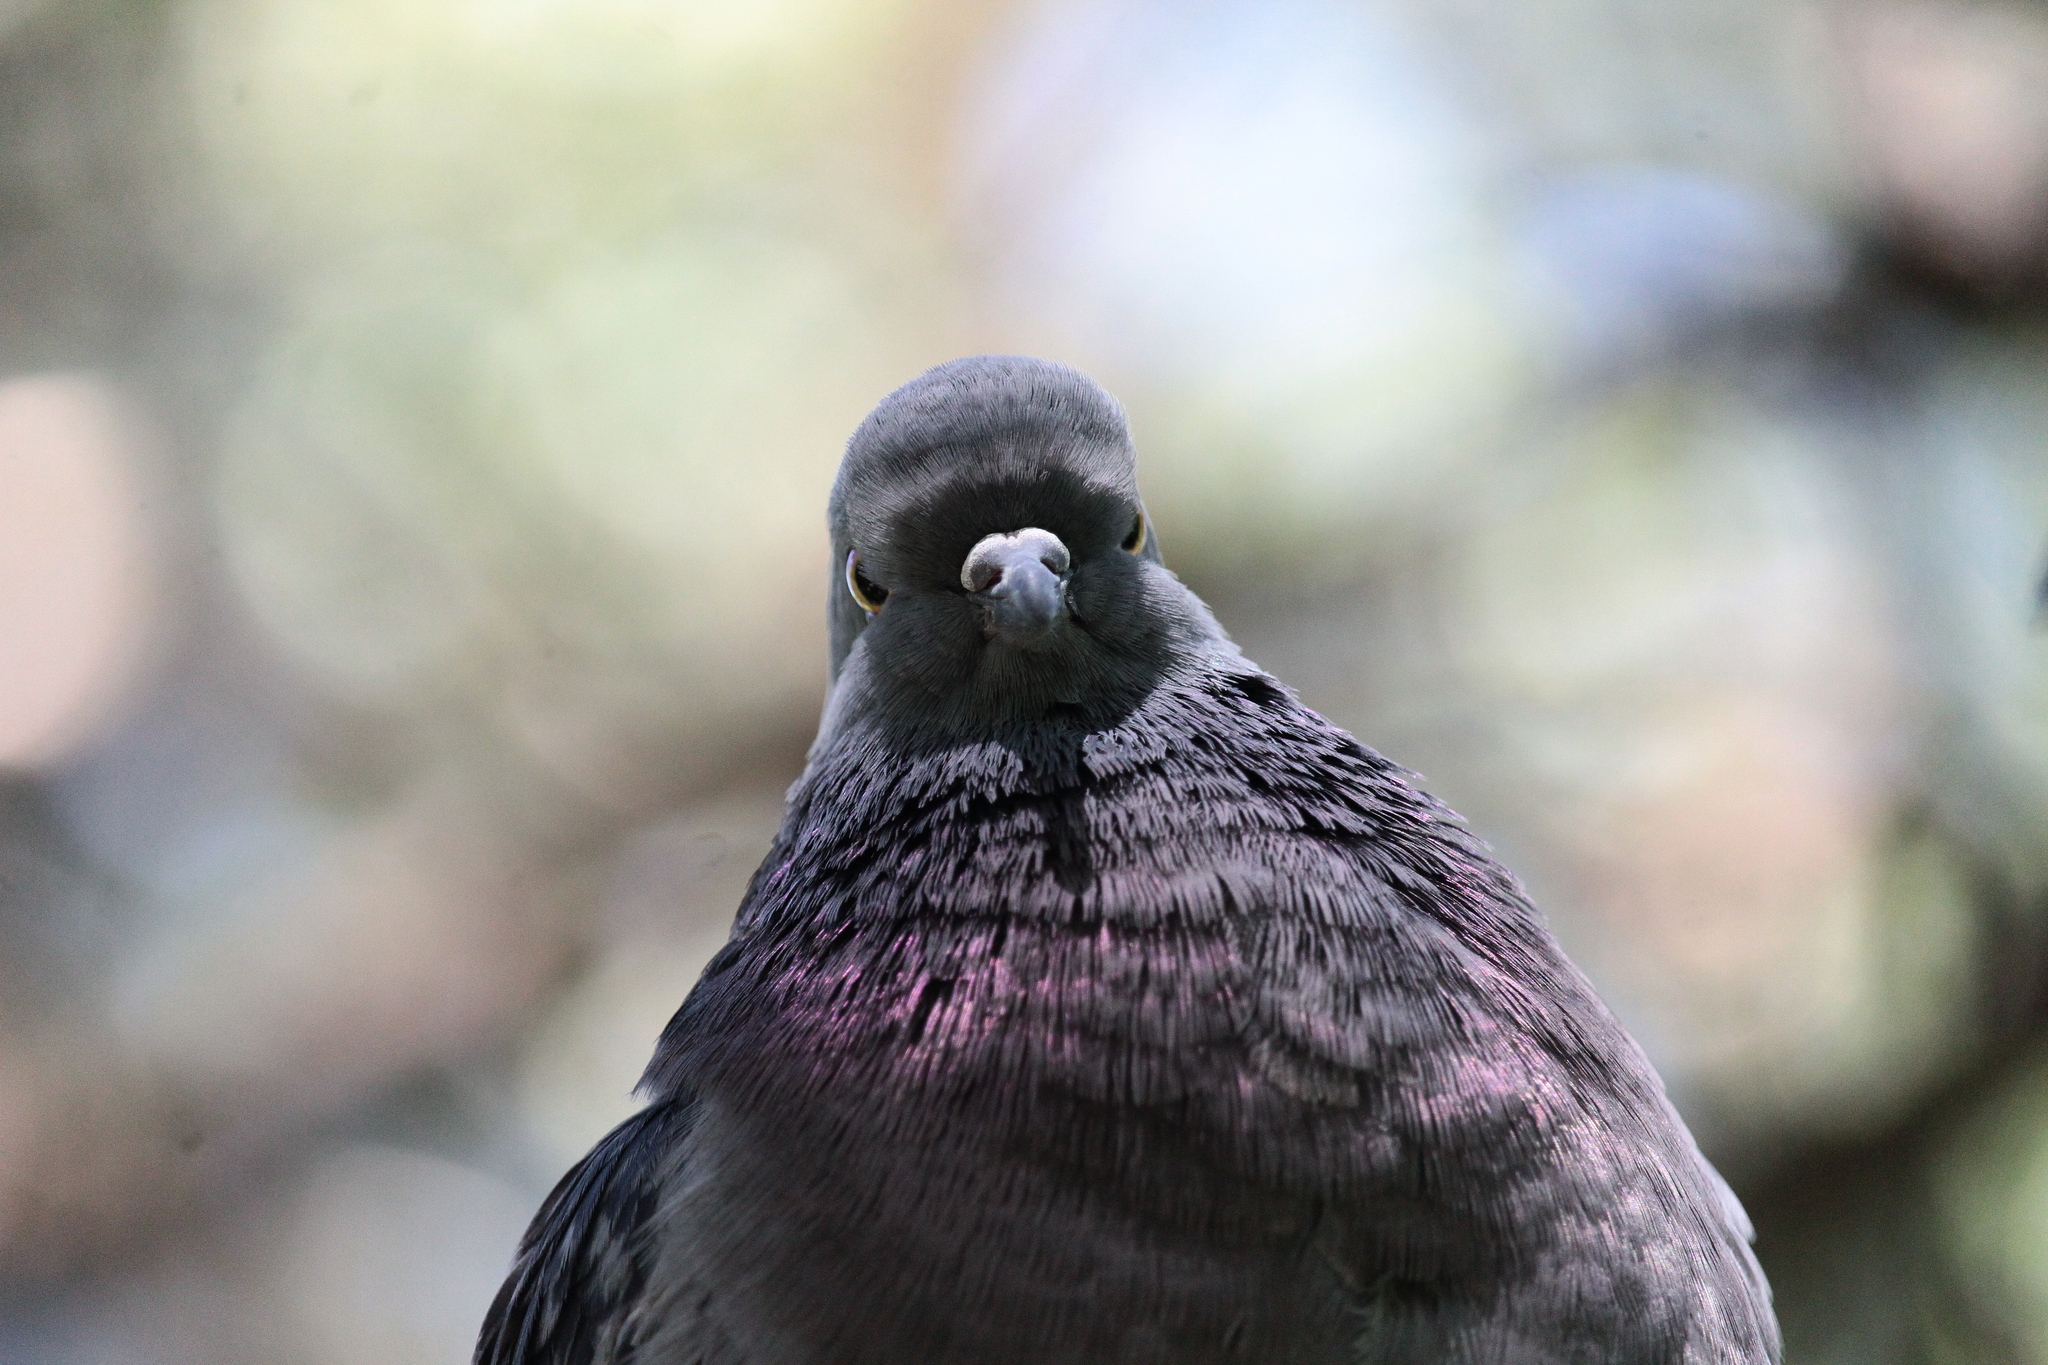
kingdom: Animalia
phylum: Chordata
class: Aves
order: Columbiformes
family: Columbidae
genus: Columba
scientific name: Columba livia
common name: Rock pigeon
